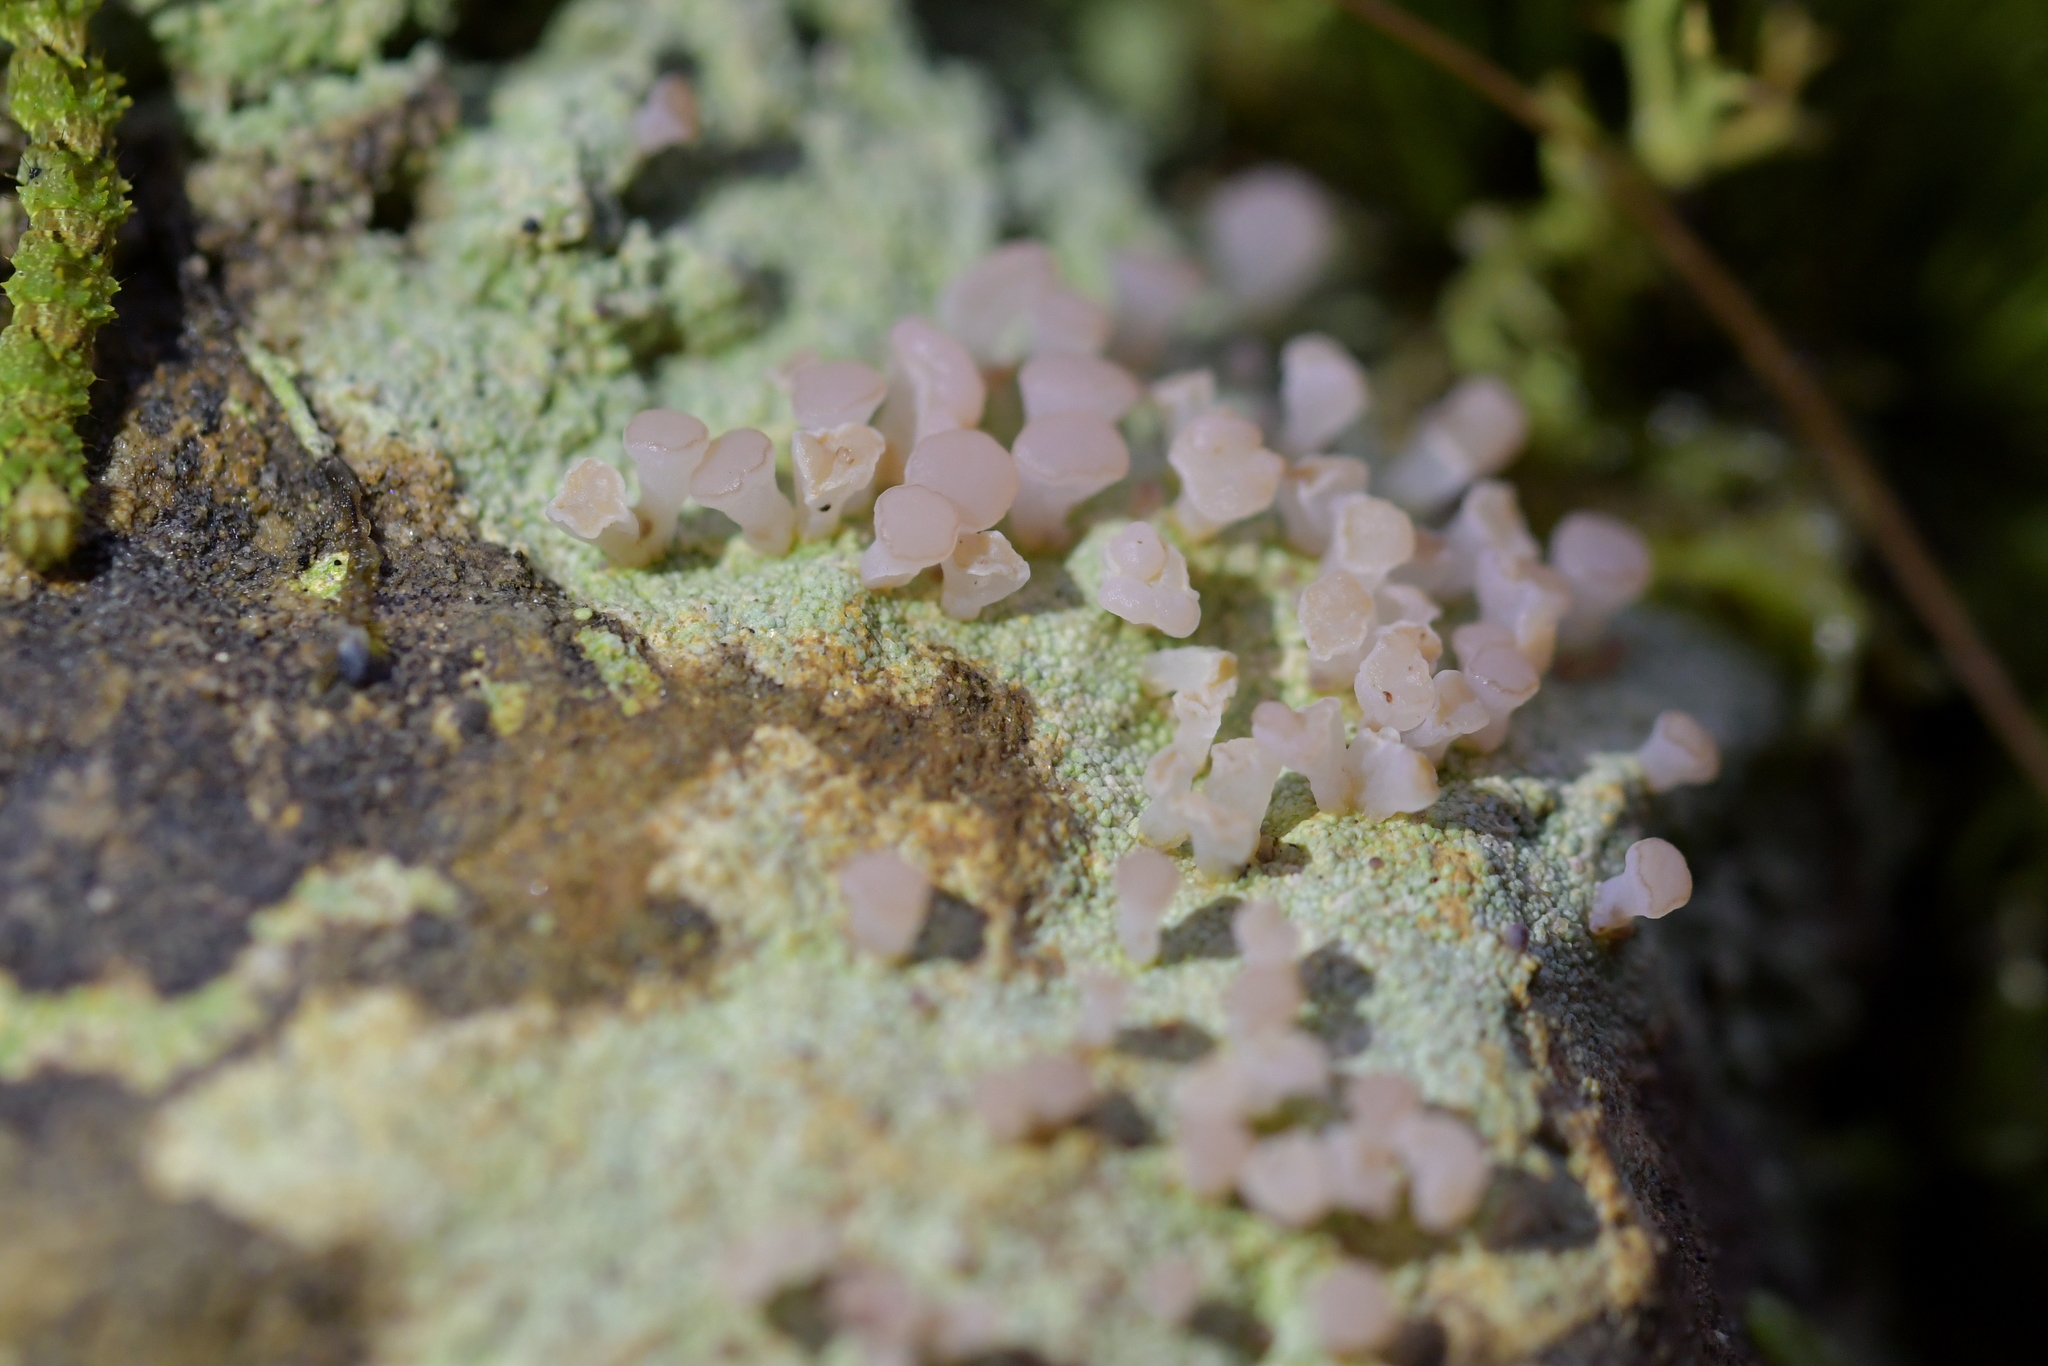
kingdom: Fungi
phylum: Ascomycota
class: Lecanoromycetes
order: Baeomycetales
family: Baeomycetaceae
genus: Baeomyces
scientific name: Baeomyces heteromorphus
